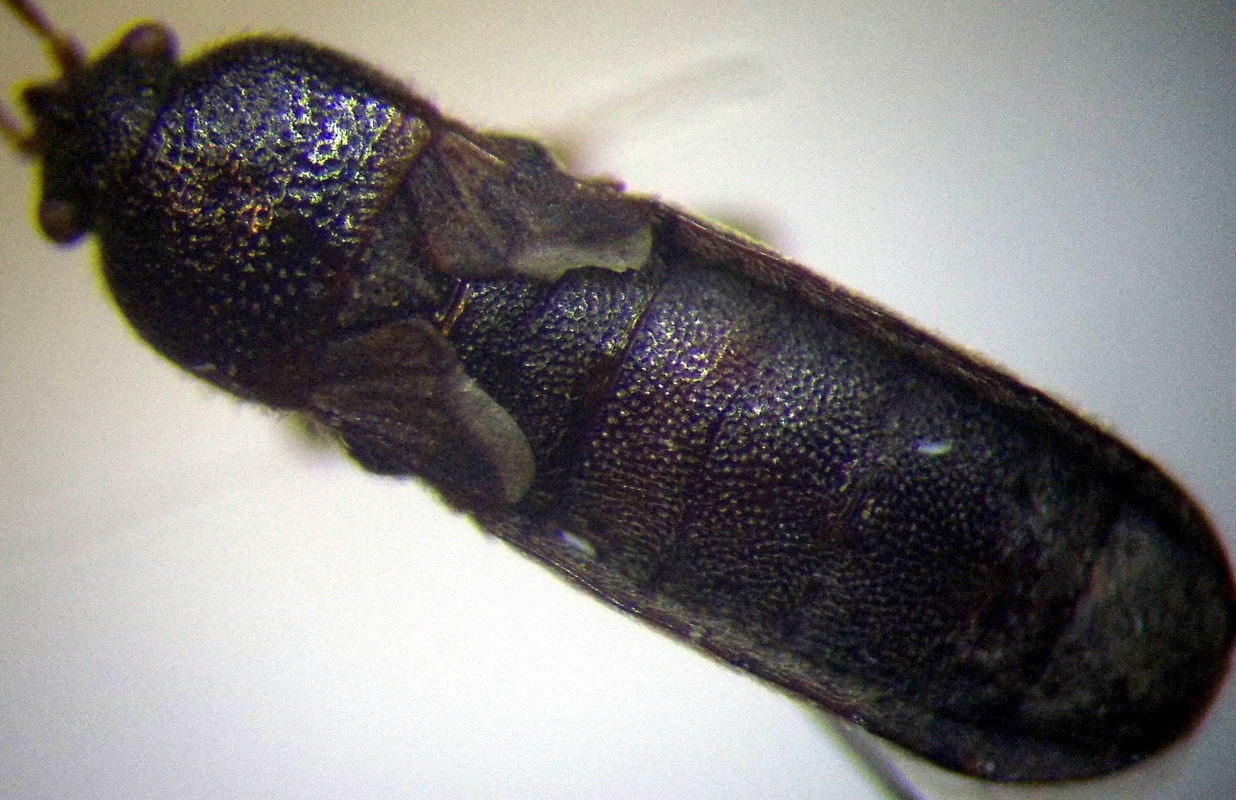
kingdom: Animalia
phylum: Arthropoda
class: Insecta
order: Hemiptera
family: Blissidae
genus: Dimorphopterus
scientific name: Dimorphopterus spinolae
